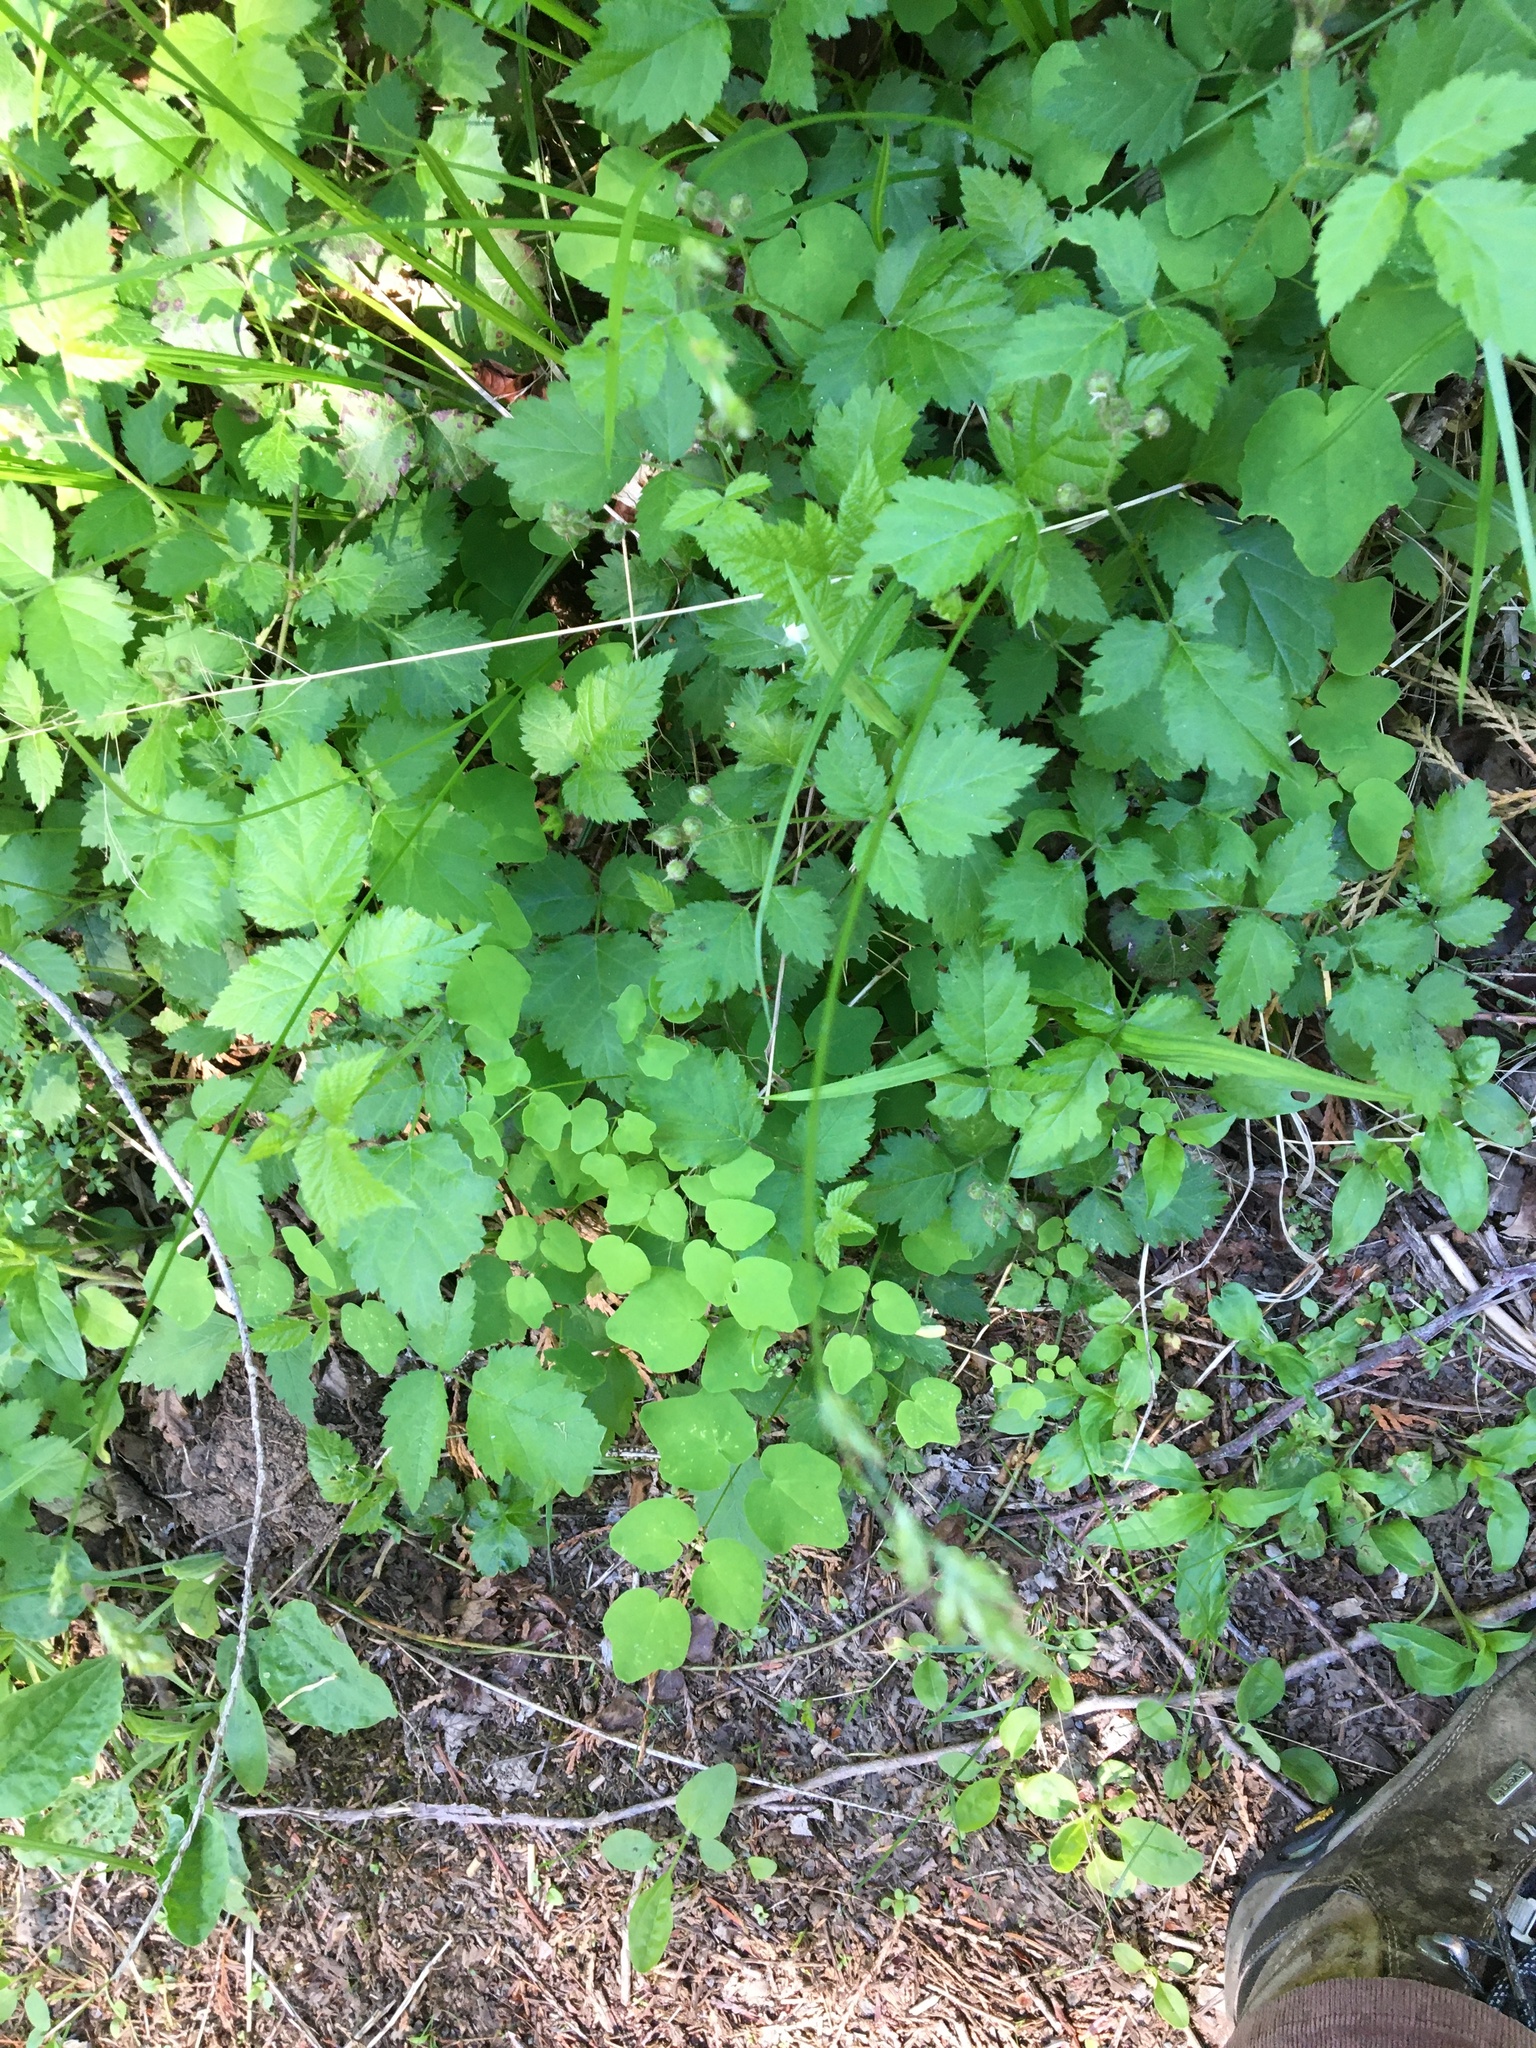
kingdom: Plantae
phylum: Tracheophyta
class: Liliopsida
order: Poales
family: Cyperaceae
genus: Carex
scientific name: Carex leptopoda
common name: Short-scale sedge
